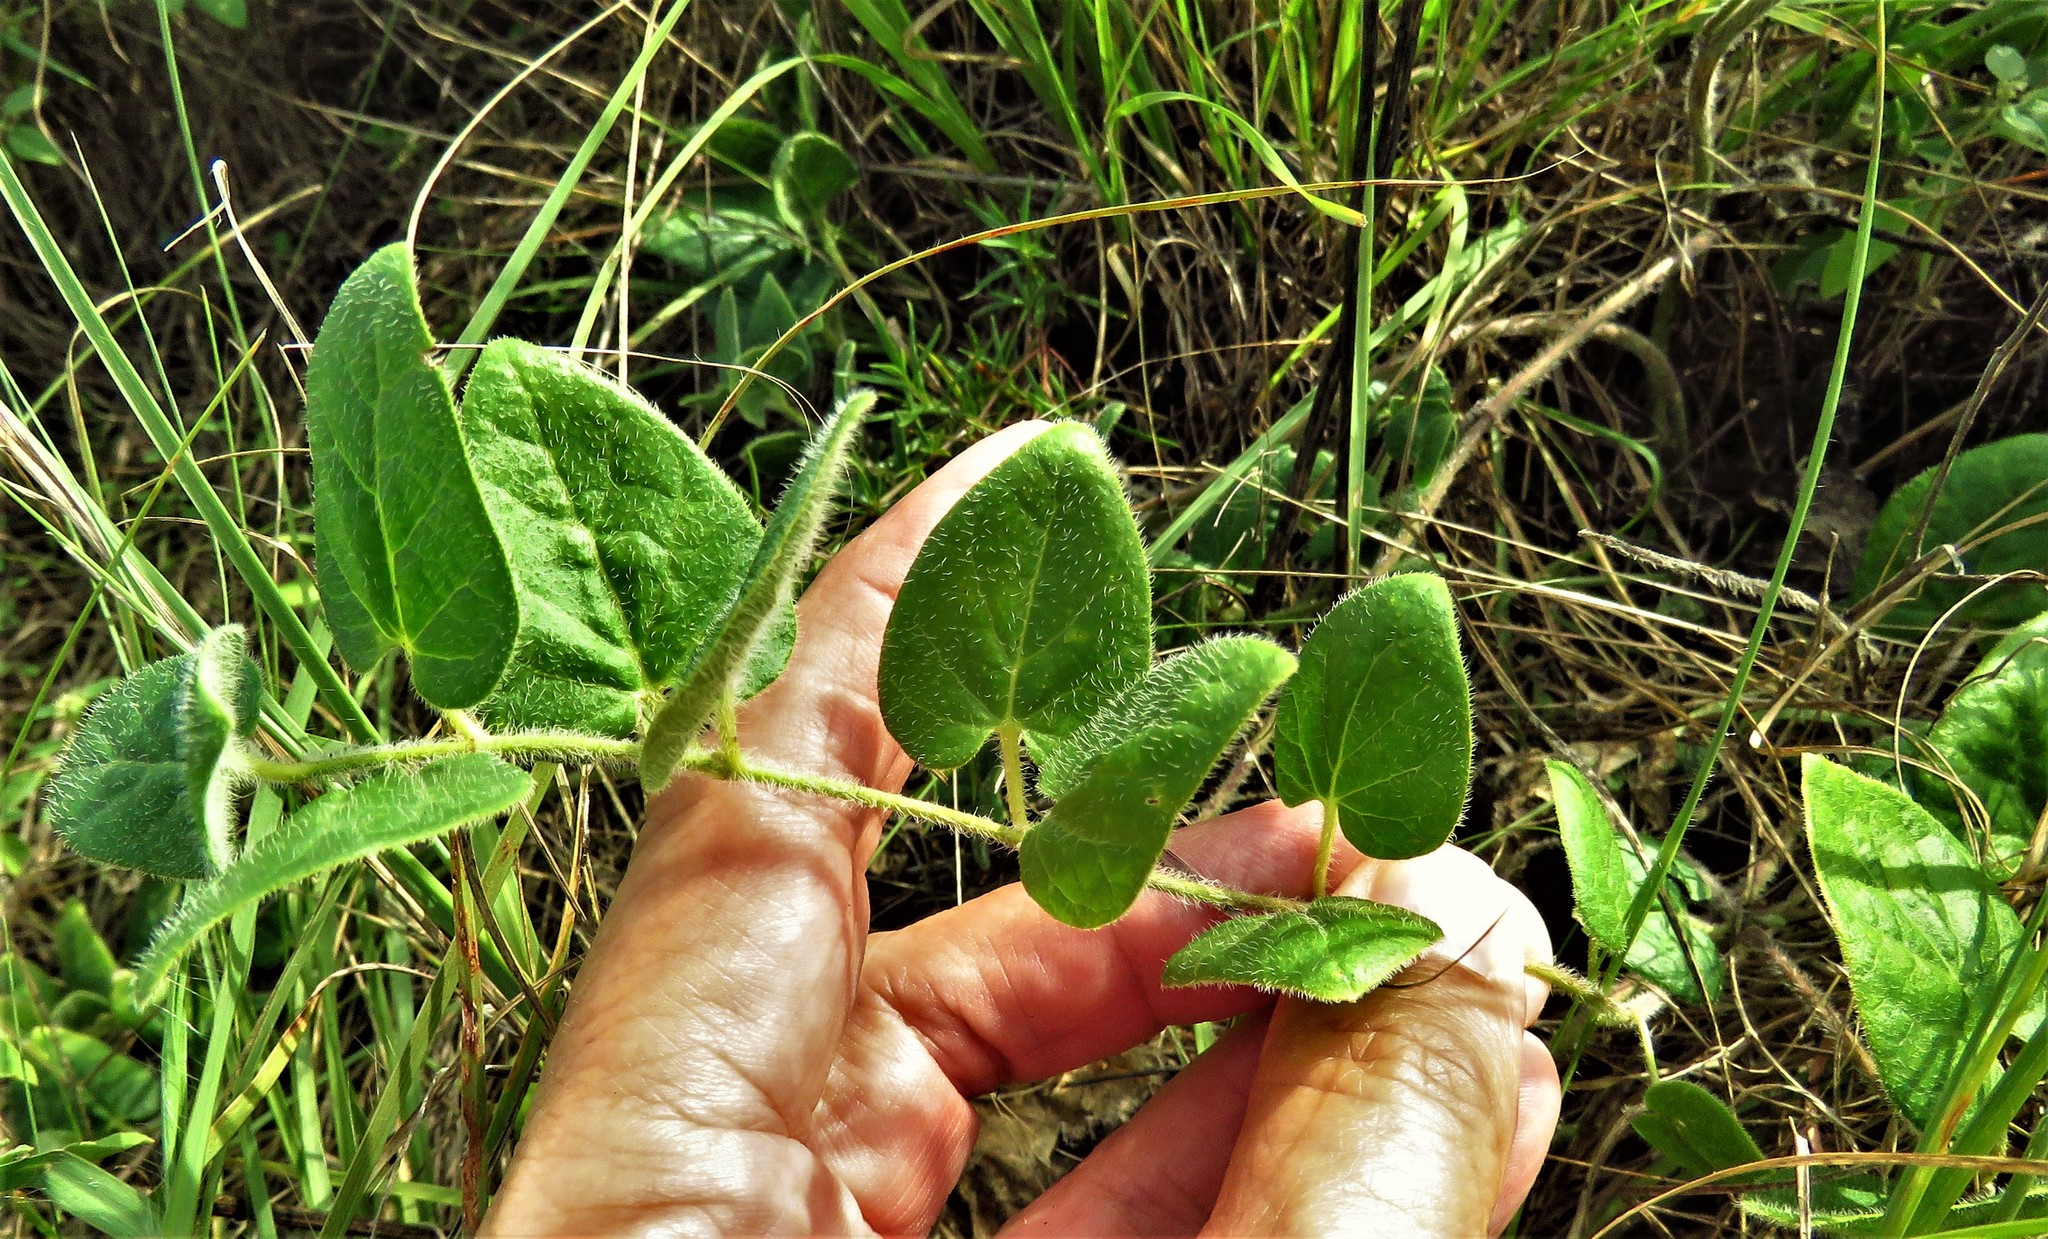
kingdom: Plantae
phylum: Tracheophyta
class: Magnoliopsida
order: Gentianales
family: Apocynaceae
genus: Chthamalia
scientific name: Chthamalia biflora
